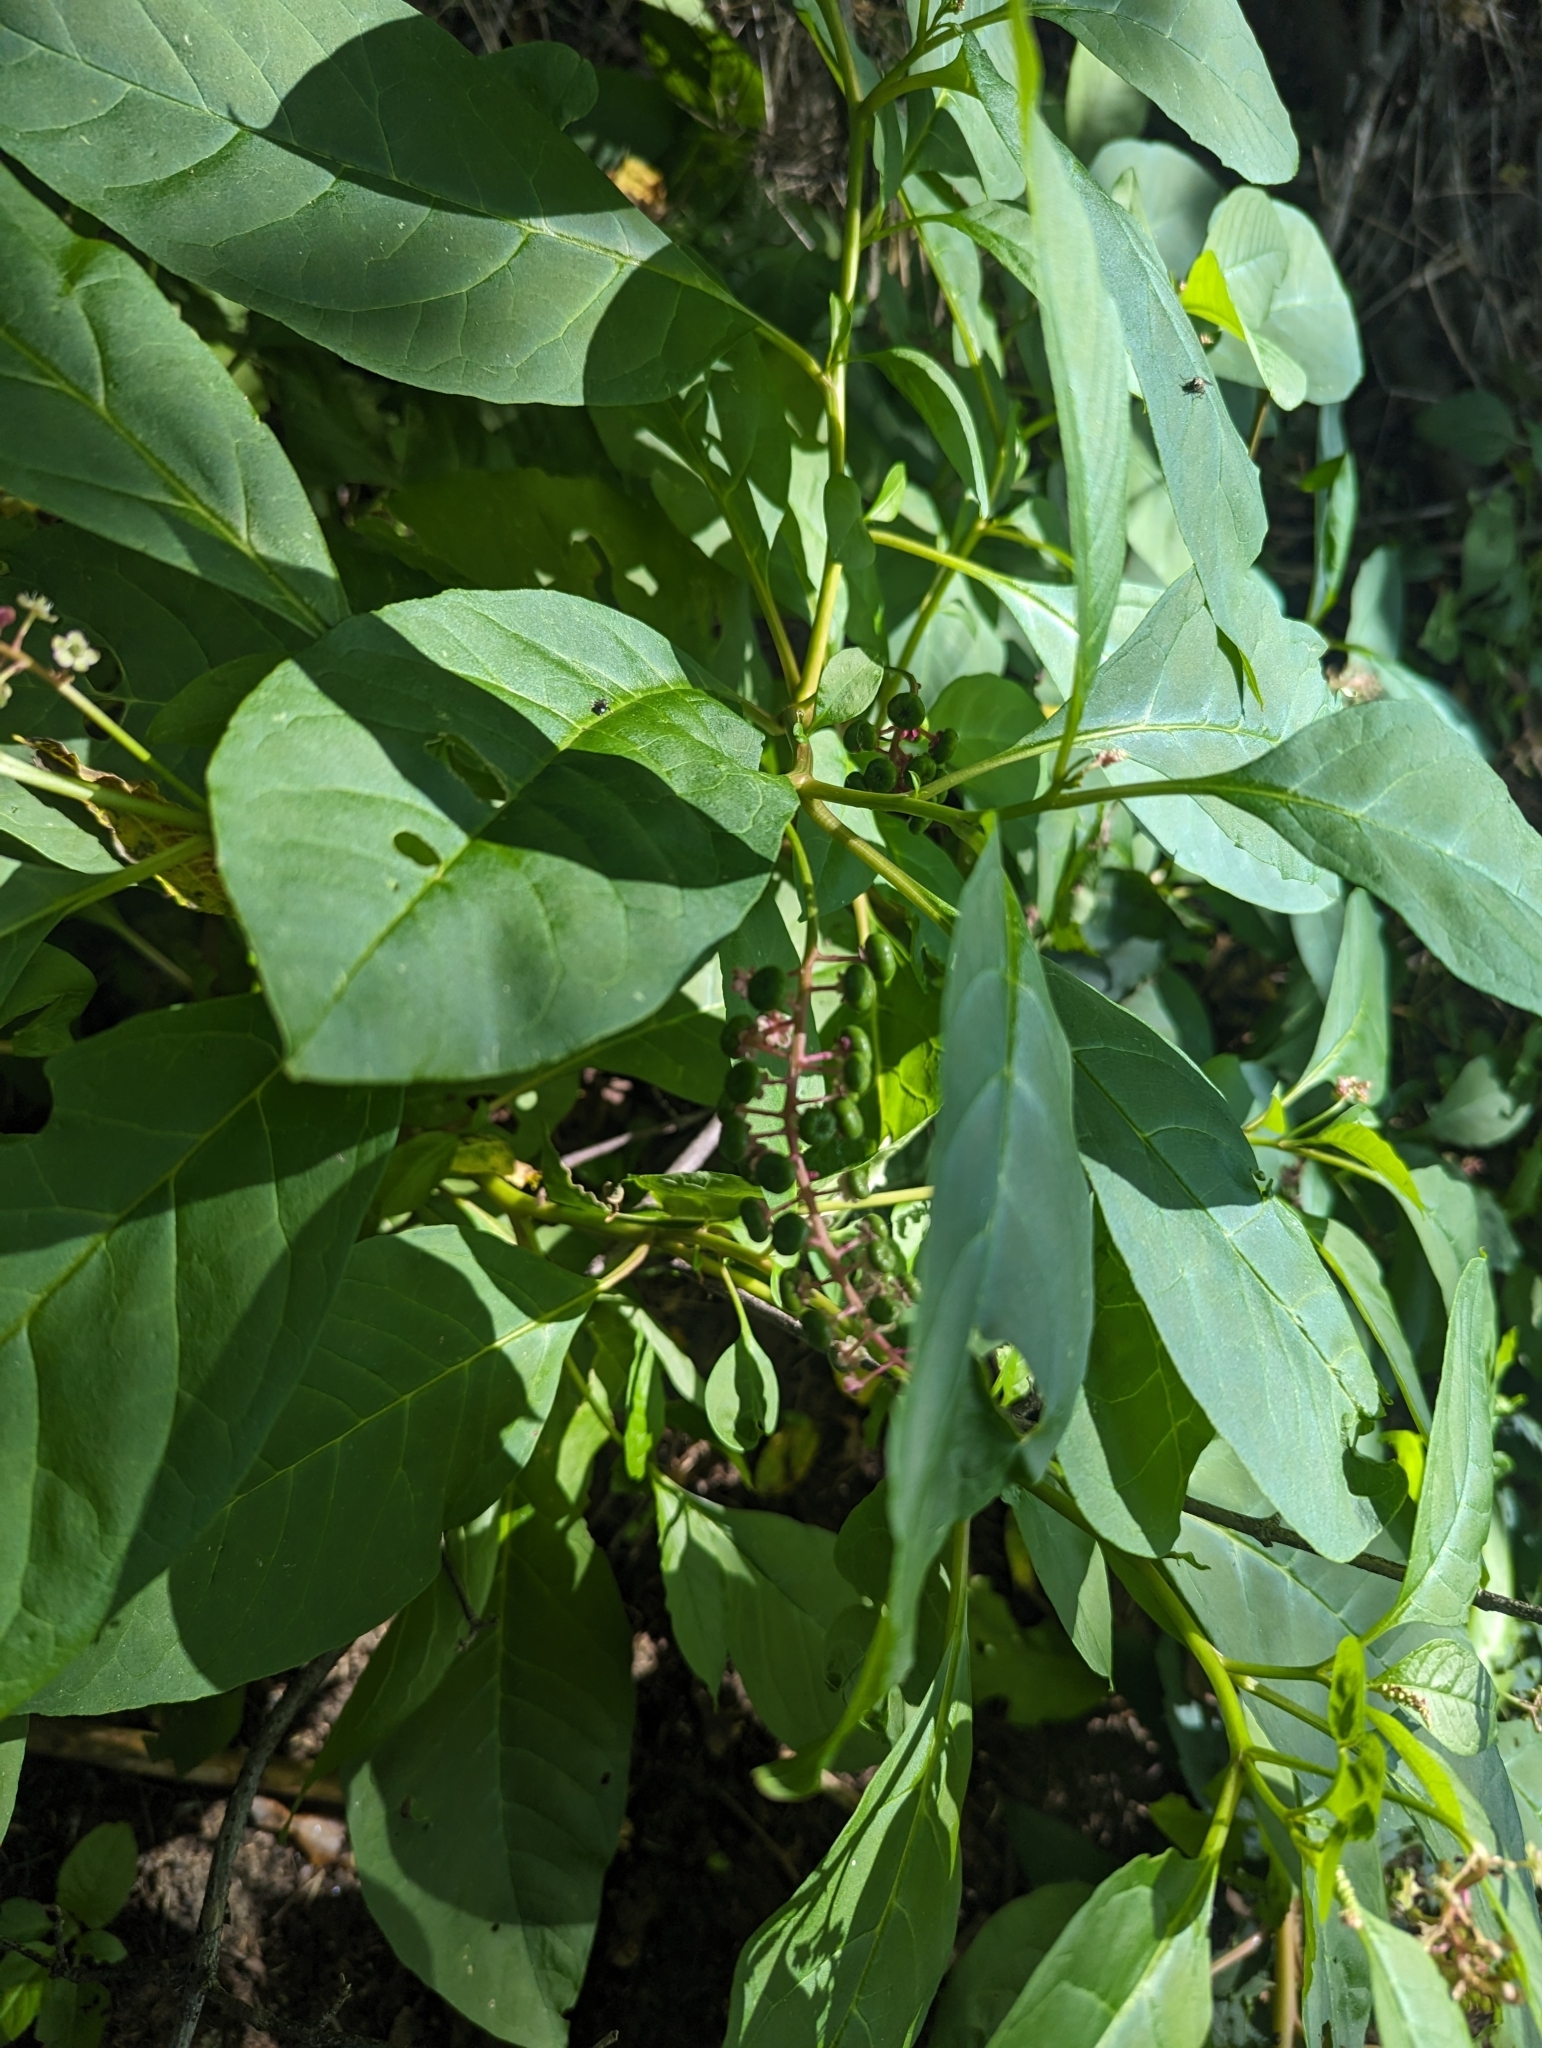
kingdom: Plantae
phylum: Tracheophyta
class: Magnoliopsida
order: Caryophyllales
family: Phytolaccaceae
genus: Phytolacca
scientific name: Phytolacca americana
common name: American pokeweed
